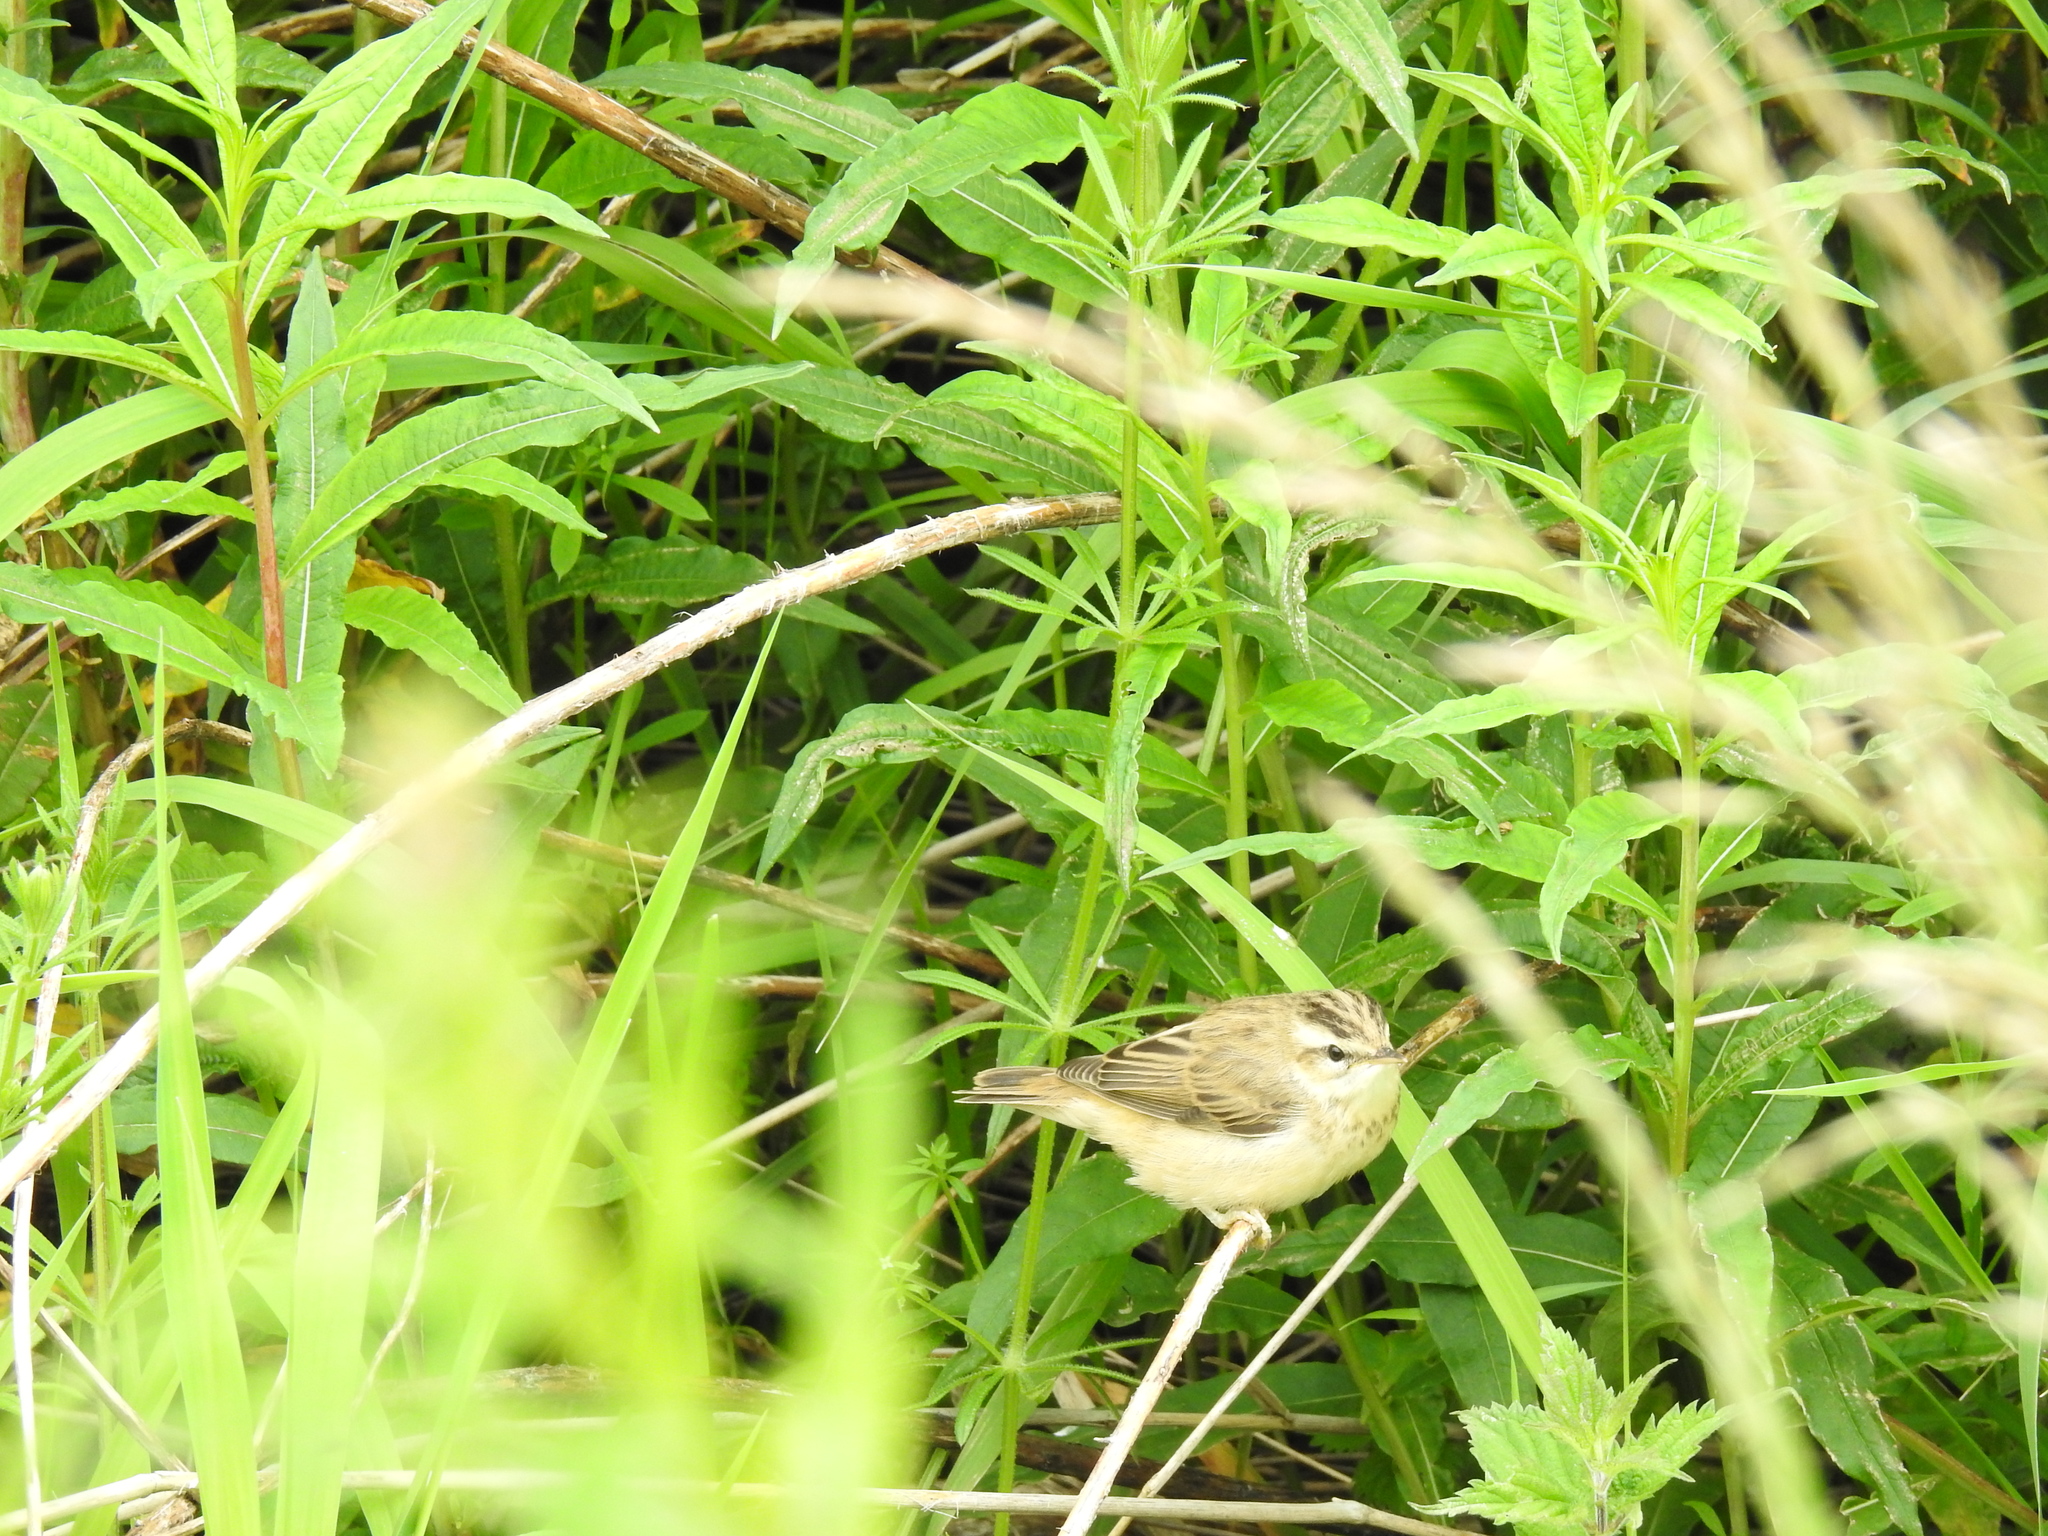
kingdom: Animalia
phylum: Chordata
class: Aves
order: Passeriformes
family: Acrocephalidae
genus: Acrocephalus
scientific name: Acrocephalus schoenobaenus
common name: Sedge warbler
